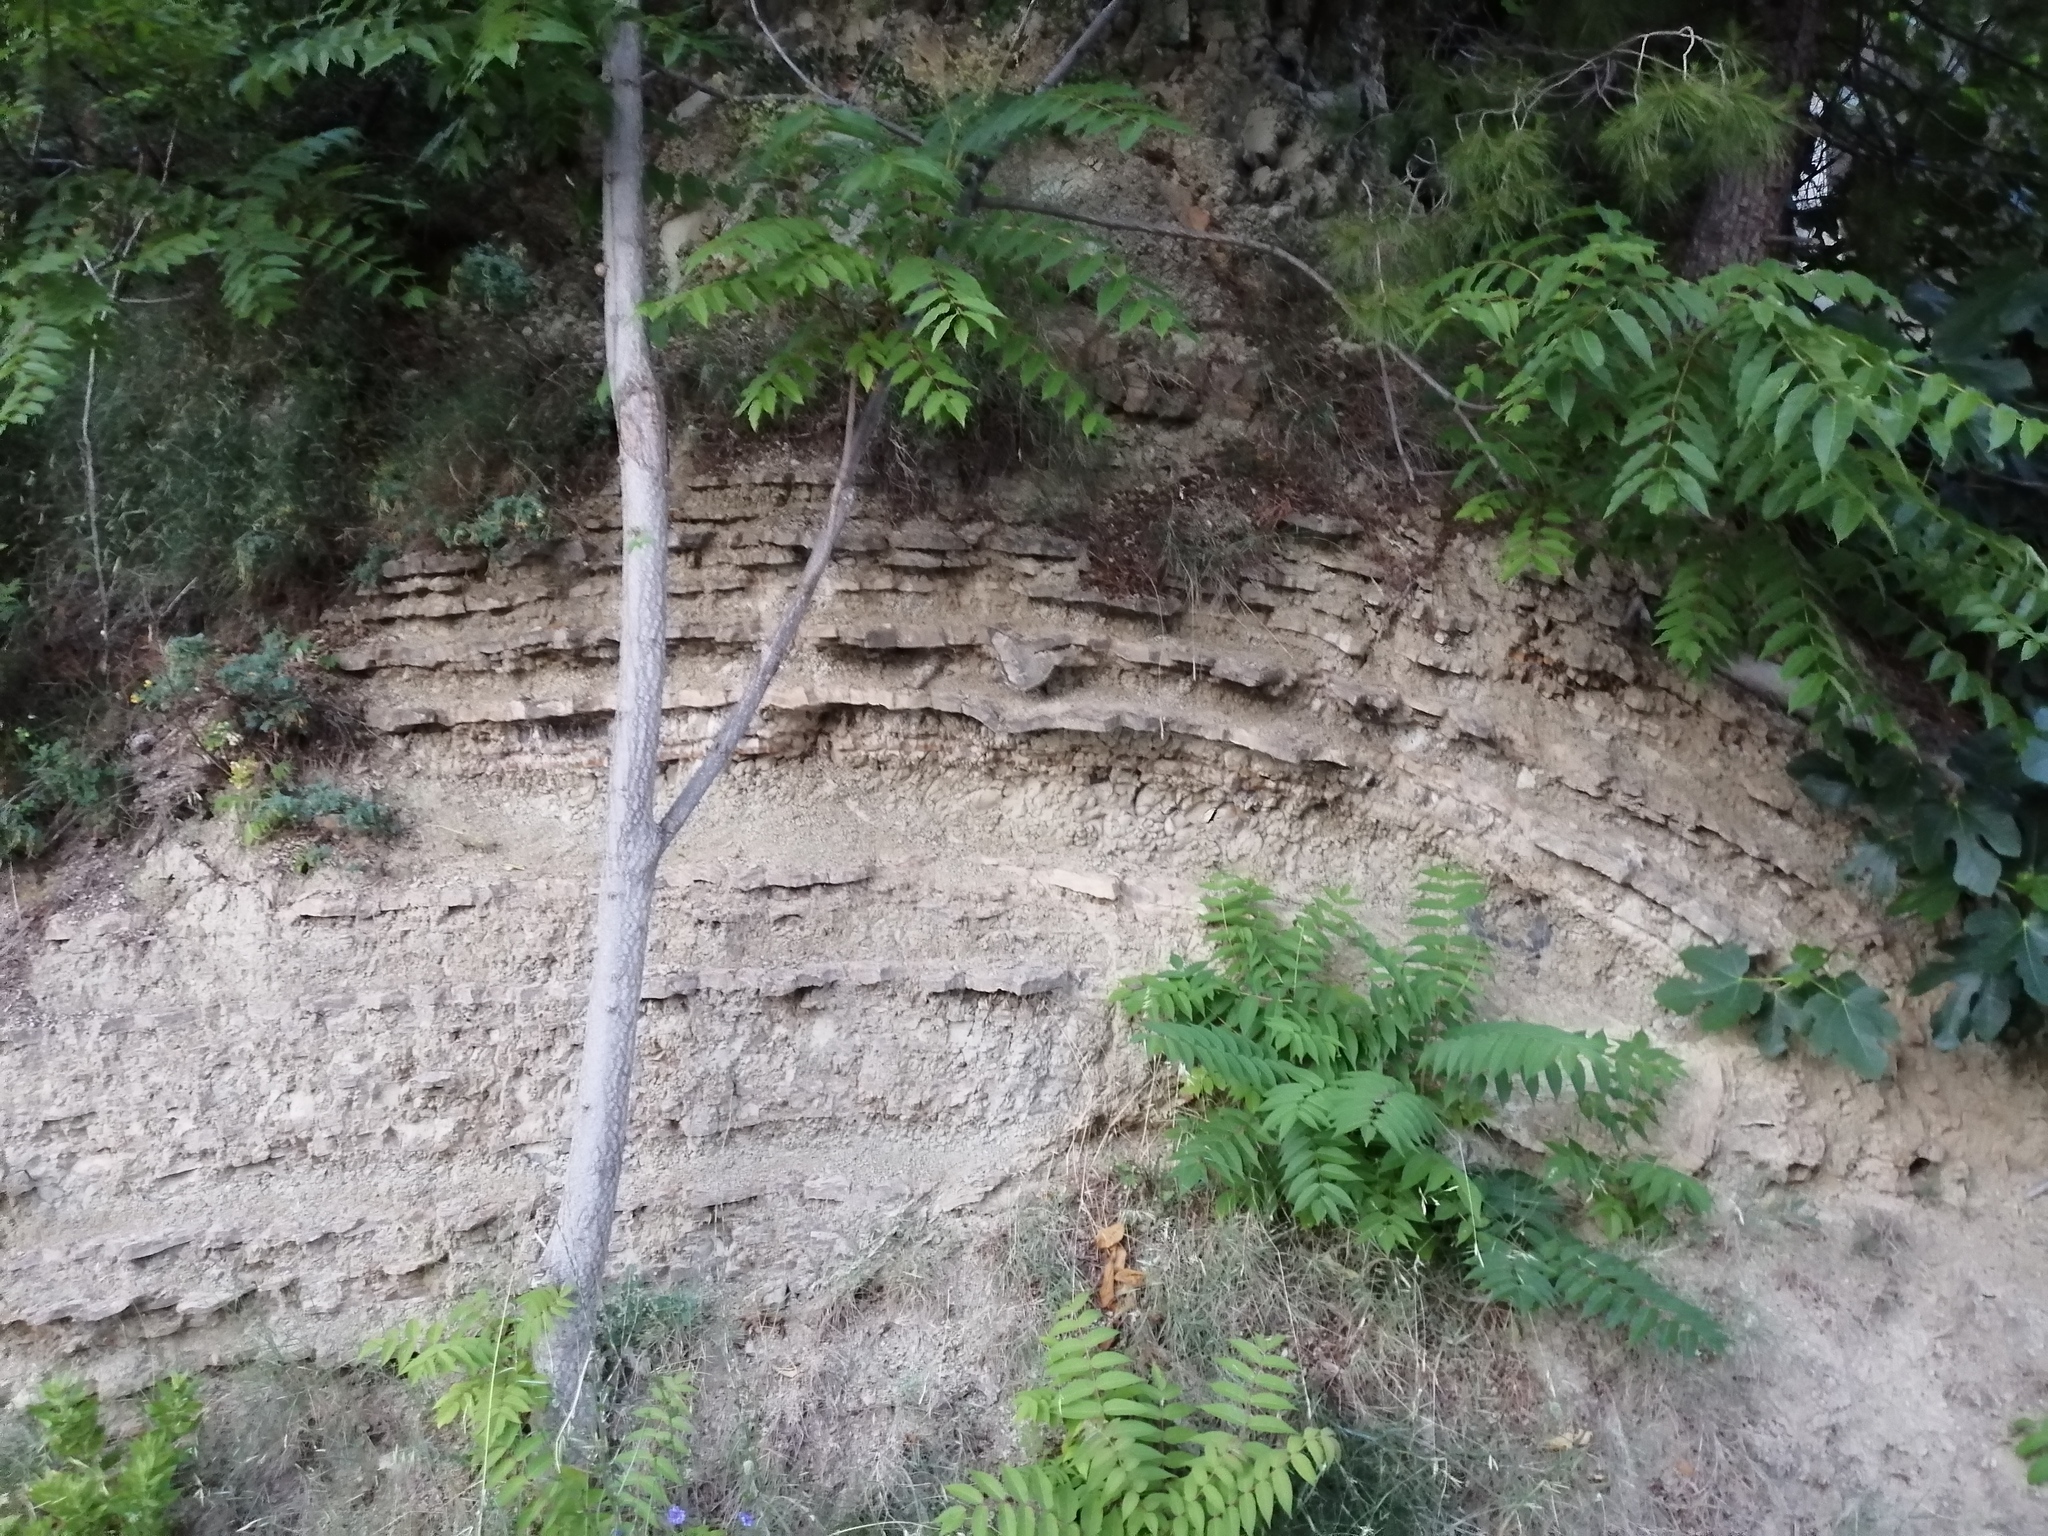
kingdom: Plantae
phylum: Tracheophyta
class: Magnoliopsida
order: Sapindales
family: Simaroubaceae
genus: Ailanthus
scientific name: Ailanthus altissima
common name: Tree-of-heaven
